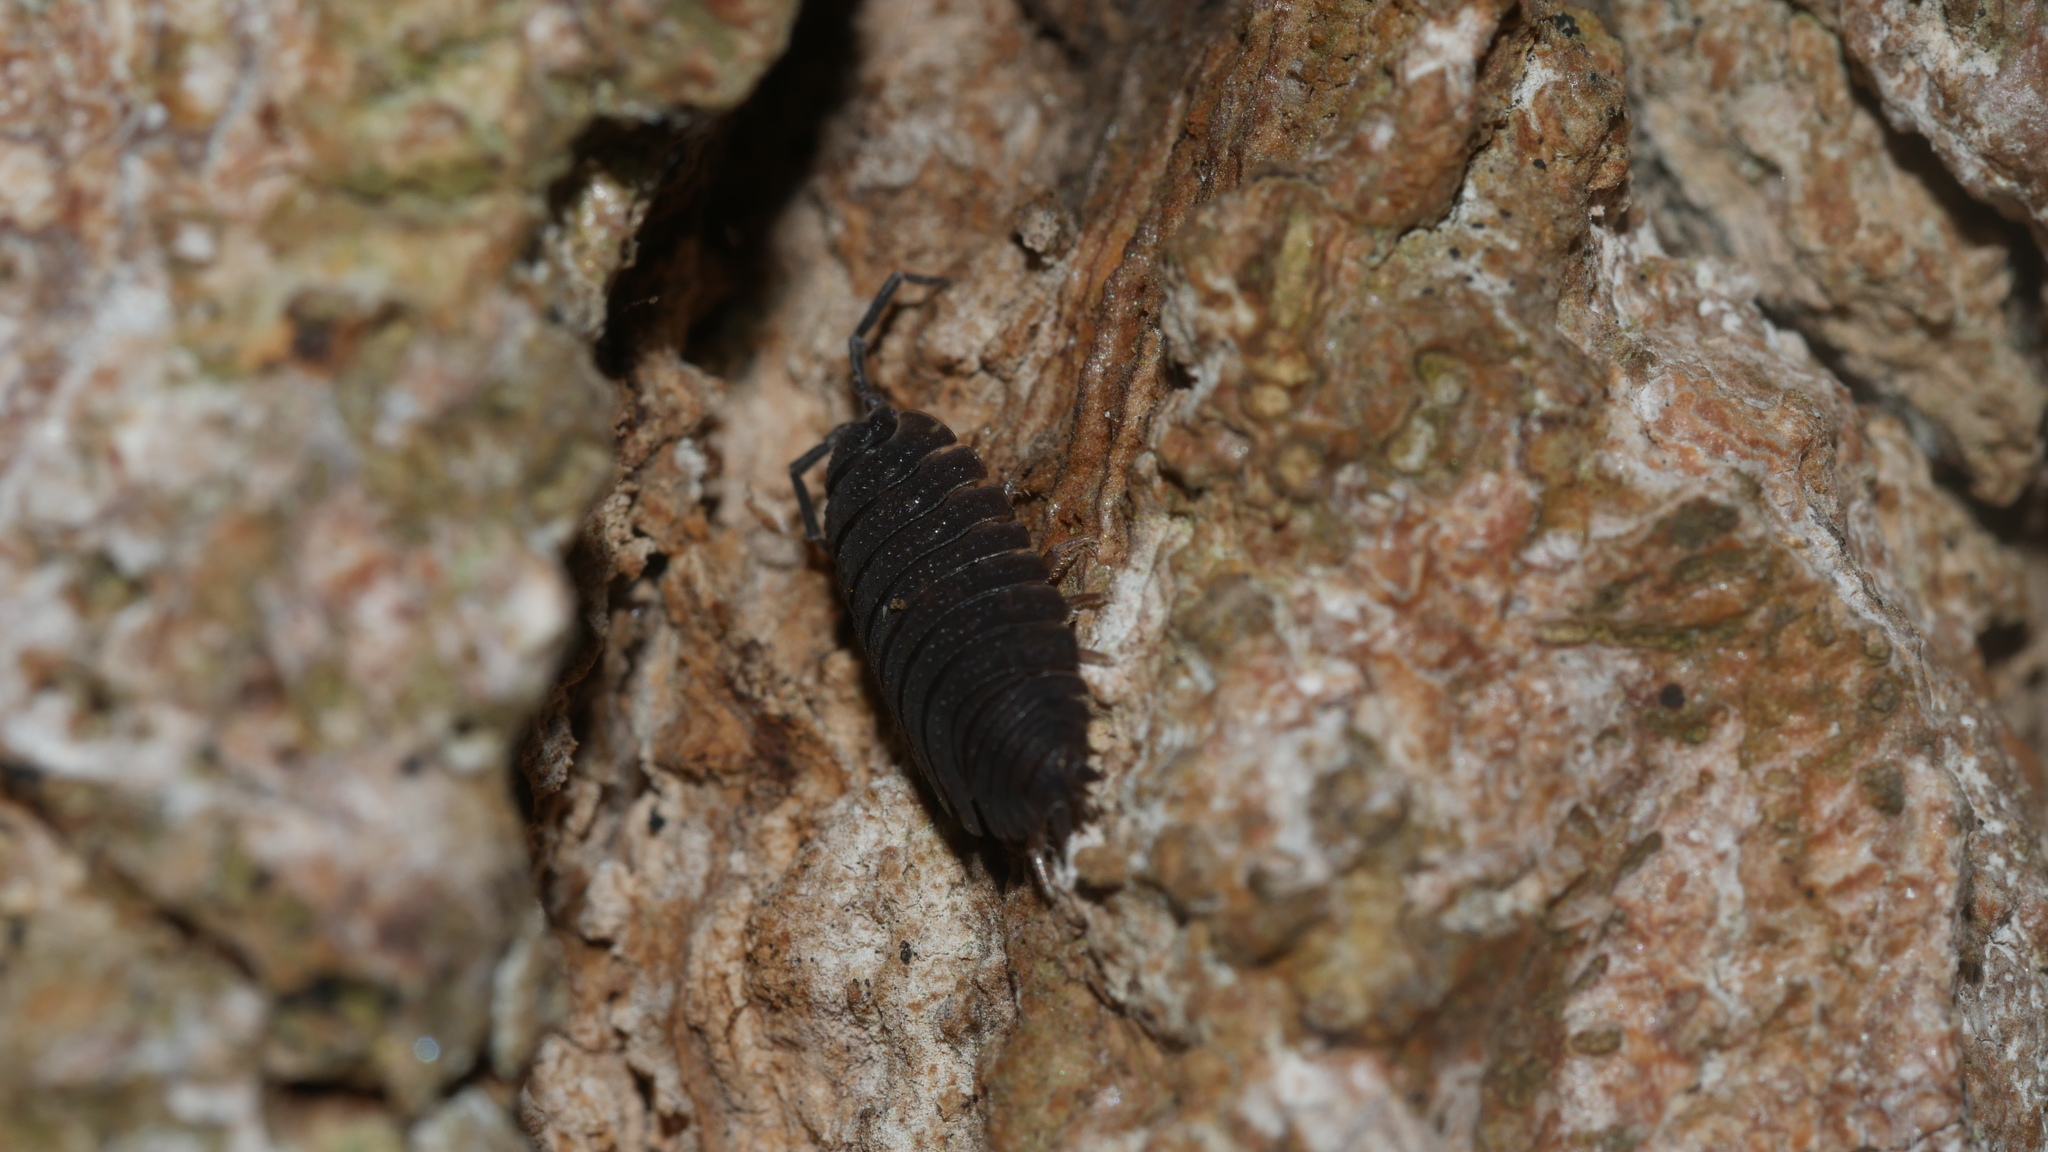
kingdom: Animalia
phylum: Arthropoda
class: Malacostraca
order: Isopoda
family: Porcellionidae
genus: Porcellio
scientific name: Porcellio scaber
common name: Common rough woodlouse
